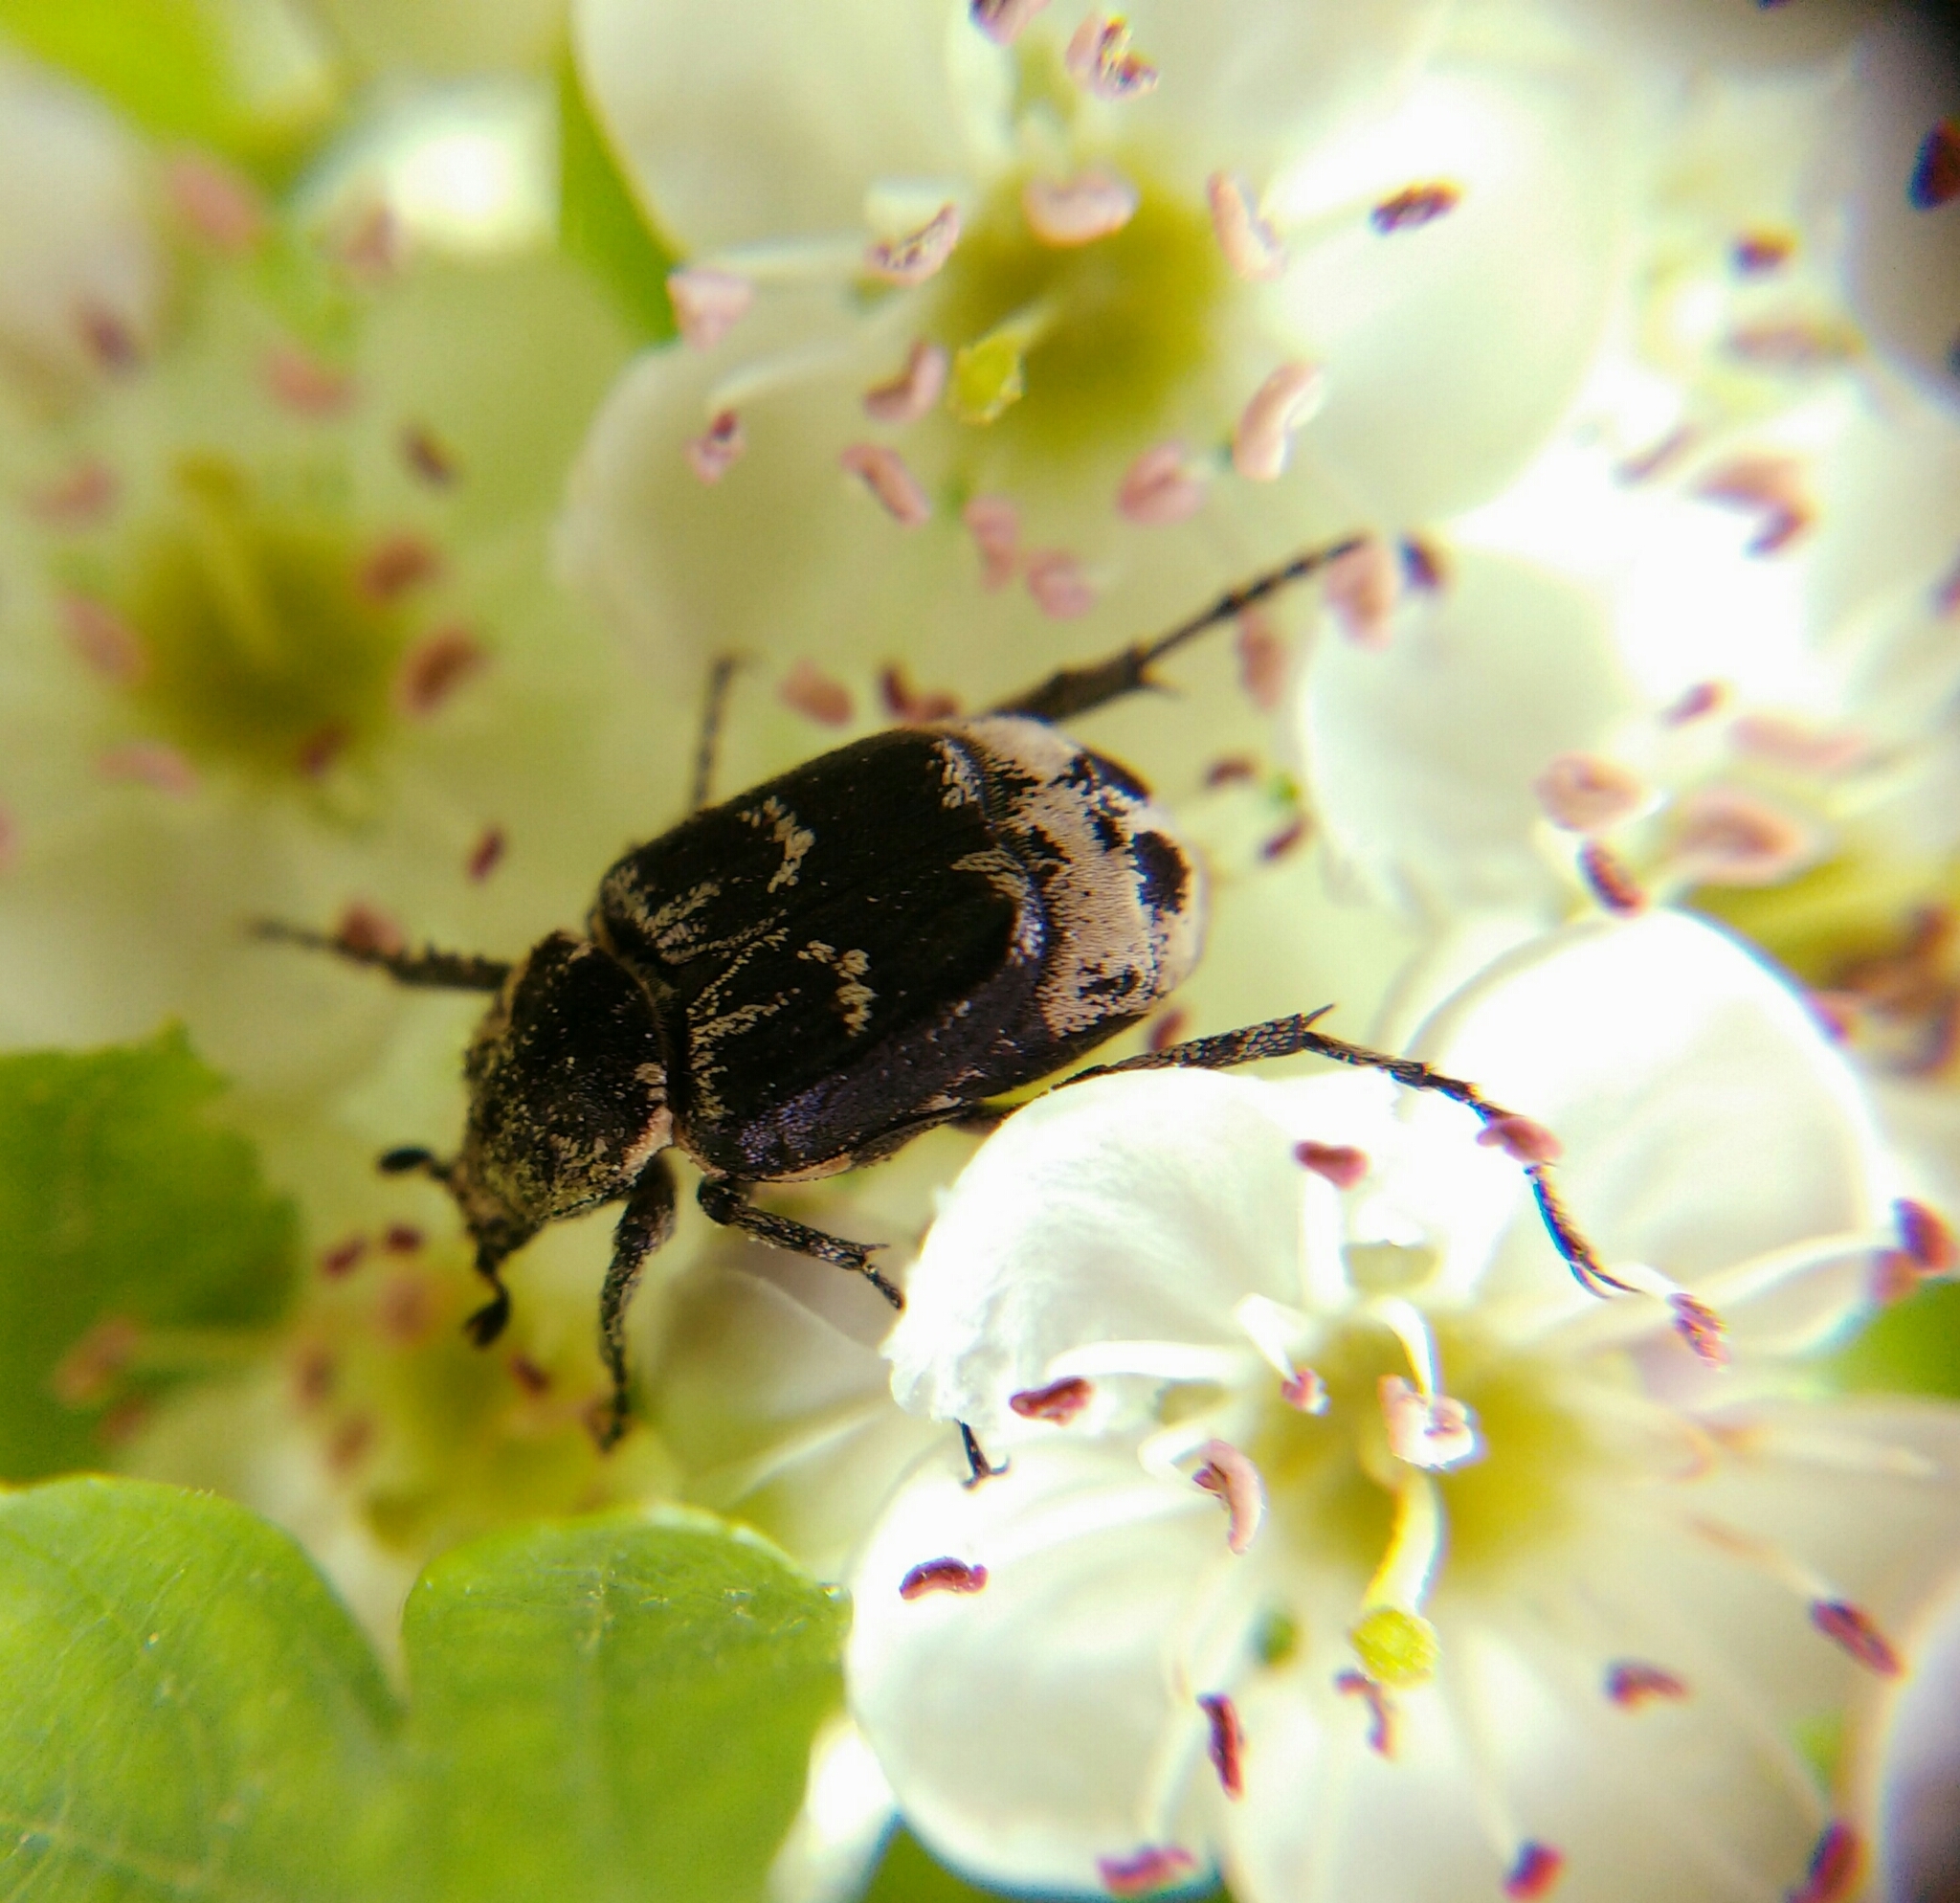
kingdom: Animalia
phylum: Arthropoda
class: Insecta
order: Coleoptera
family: Scarabaeidae
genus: Valgus
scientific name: Valgus hemipterus
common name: Bug flower chafer
